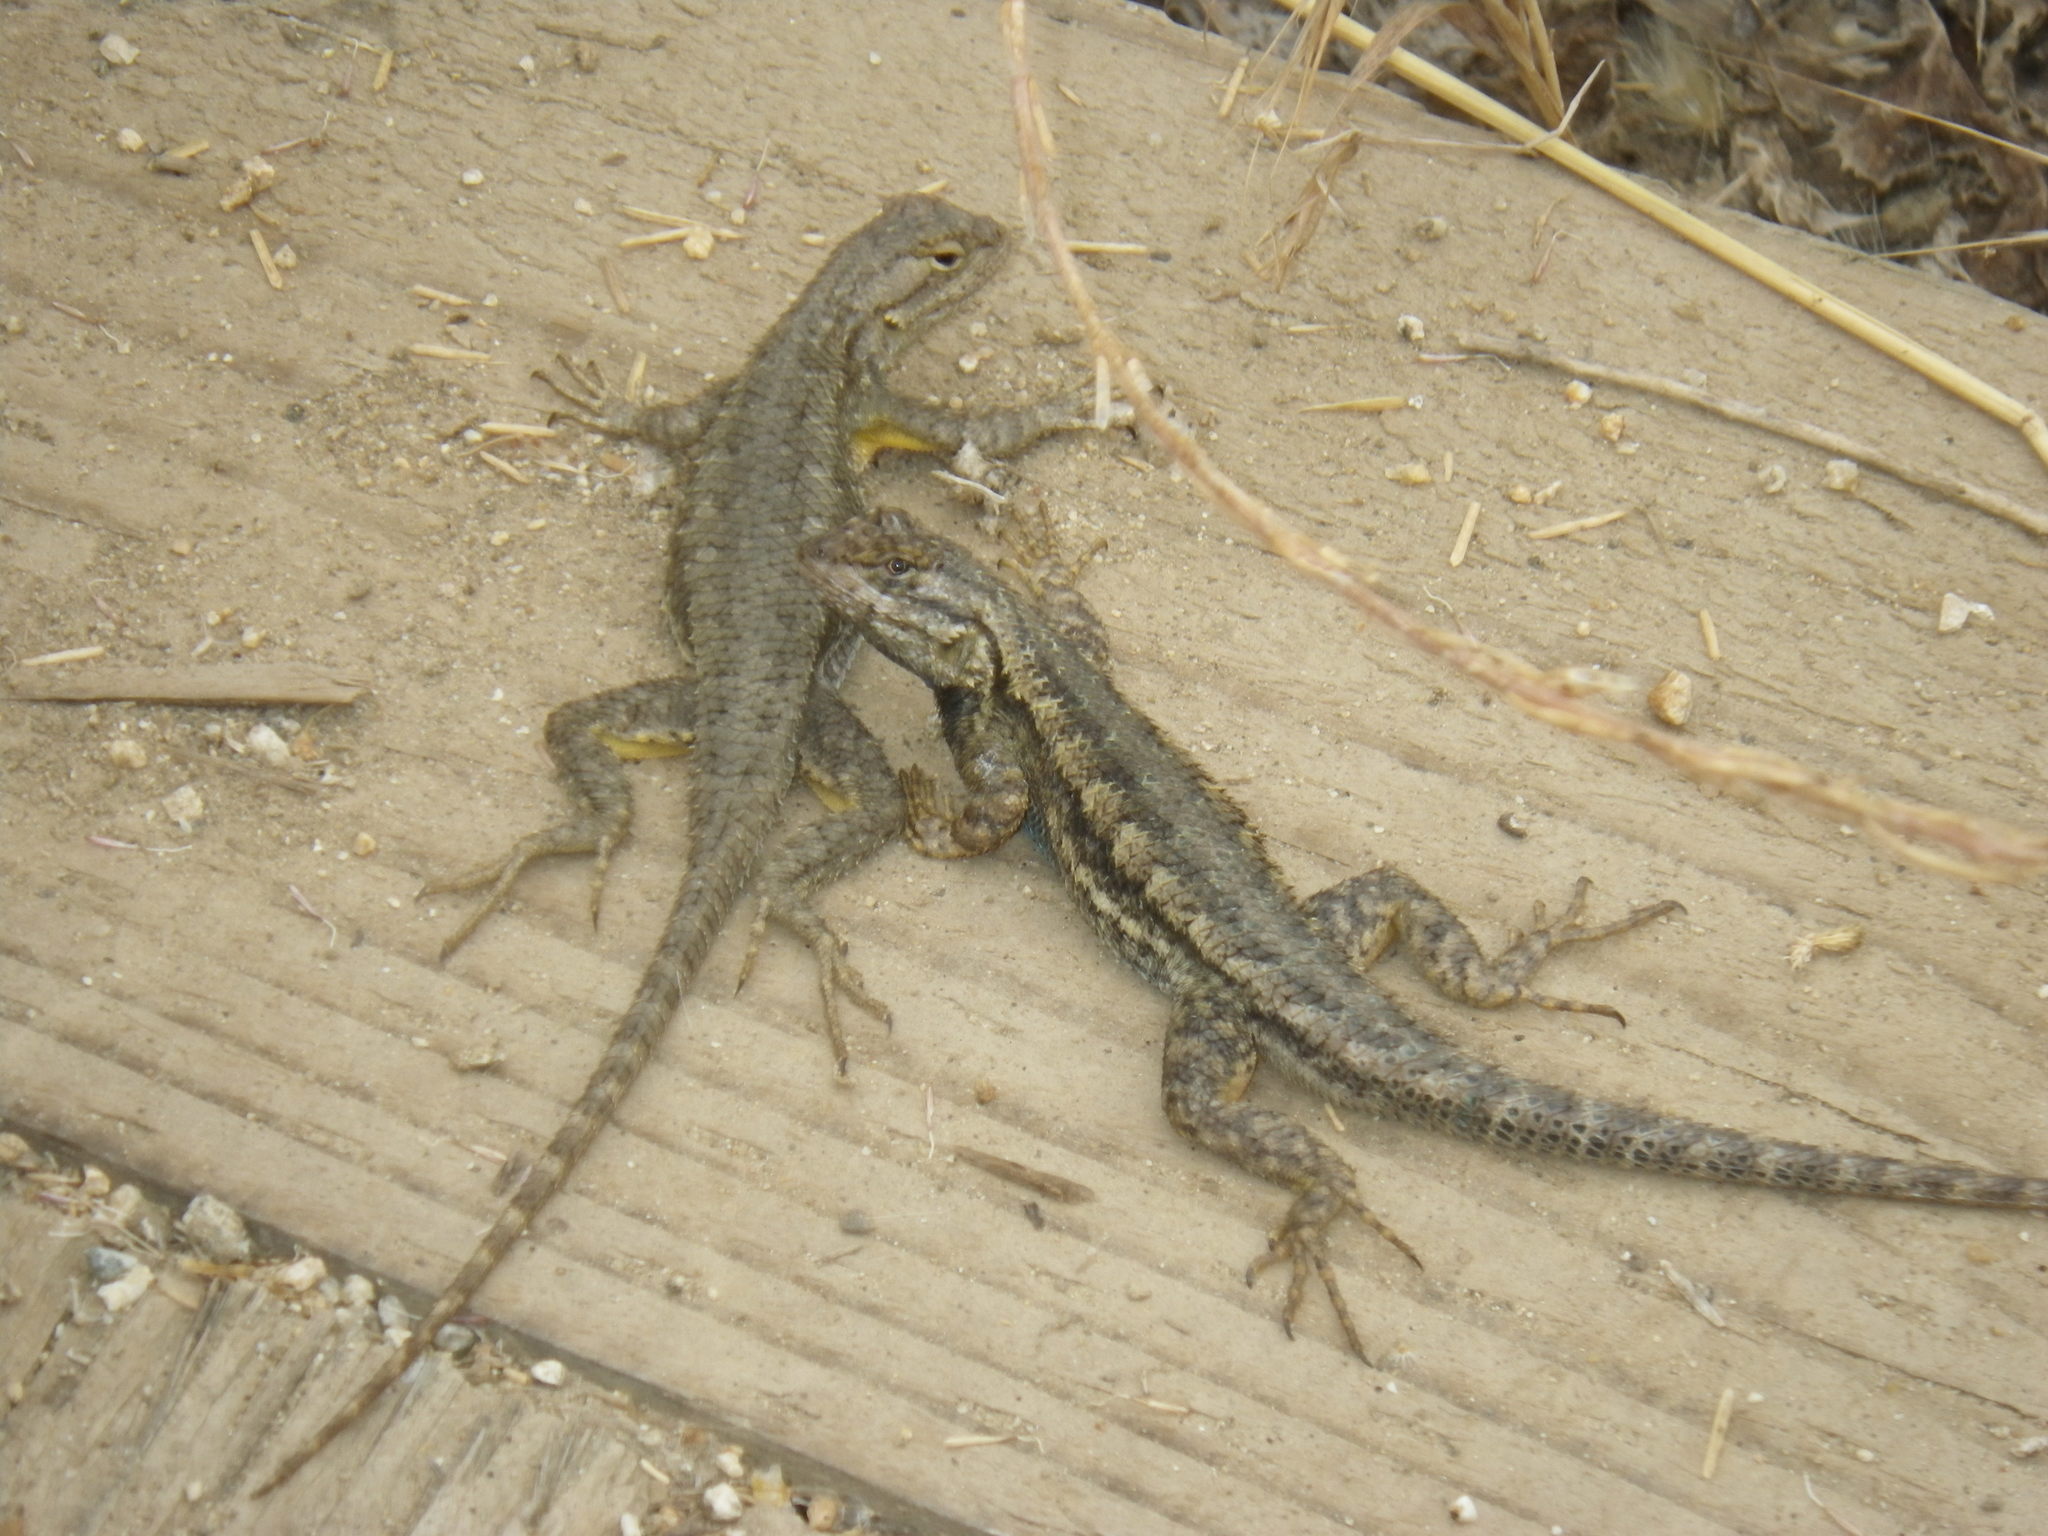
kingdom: Animalia
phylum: Chordata
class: Squamata
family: Phrynosomatidae
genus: Sceloporus
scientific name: Sceloporus occidentalis
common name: Western fence lizard
